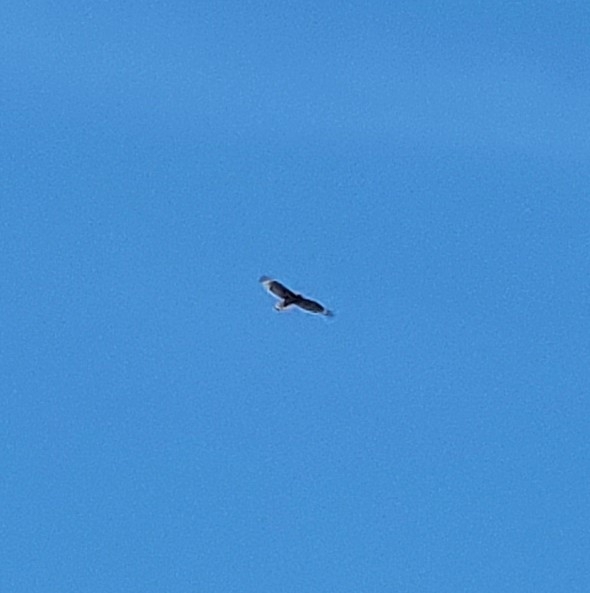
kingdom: Animalia
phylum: Chordata
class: Aves
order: Accipitriformes
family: Accipitridae
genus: Buteo
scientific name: Buteo lineatus
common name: Red-shouldered hawk
